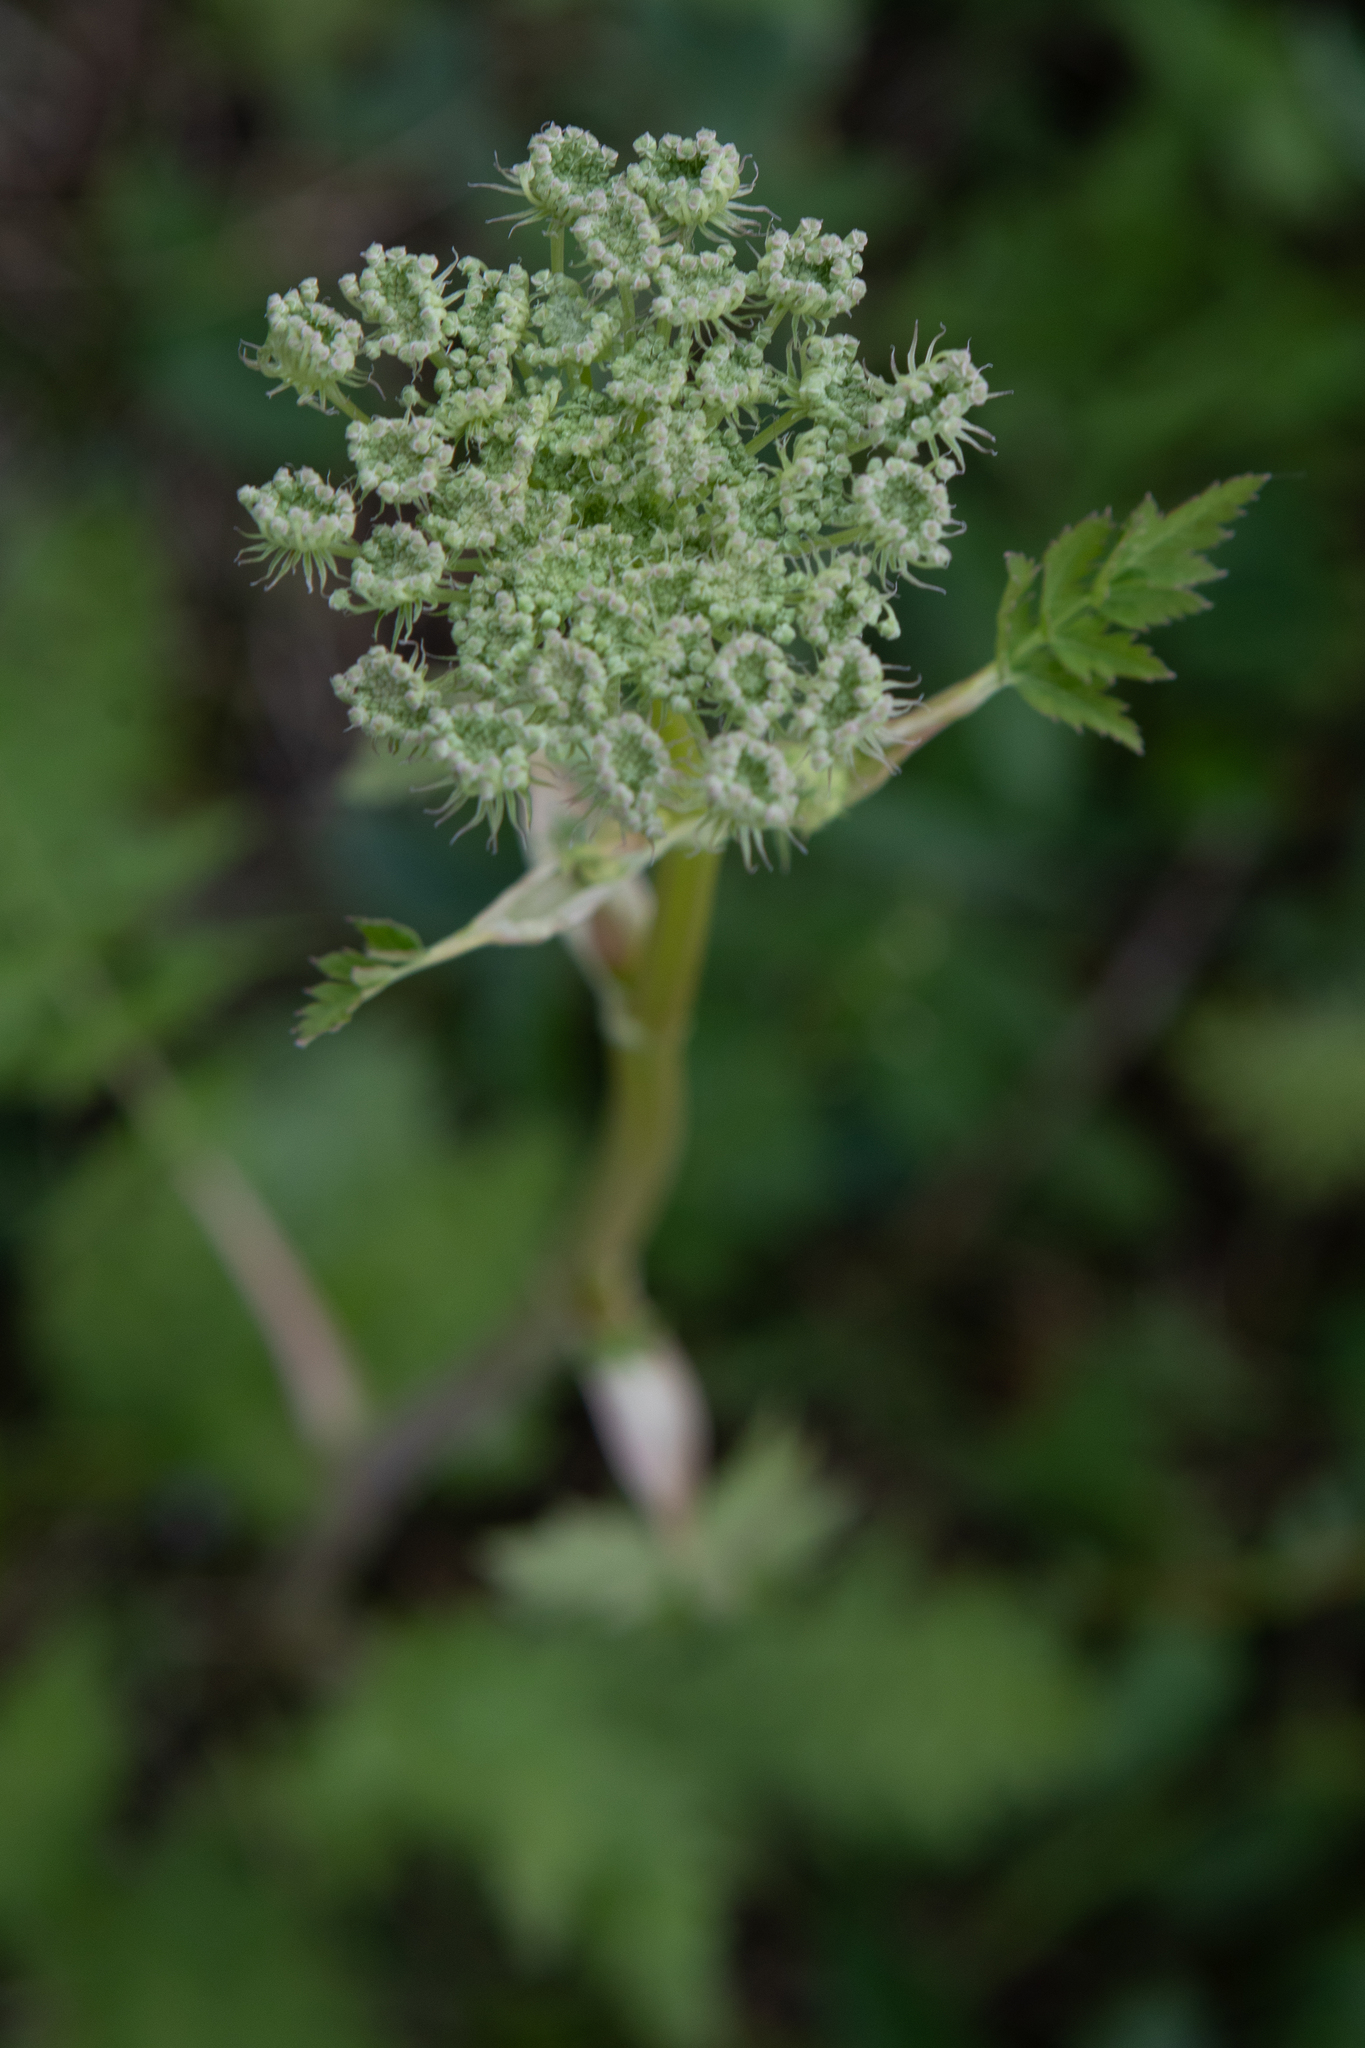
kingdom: Plantae
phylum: Tracheophyta
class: Magnoliopsida
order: Apiales
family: Apiaceae
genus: Seseli
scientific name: Seseli libanotis
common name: Mooncarrot
